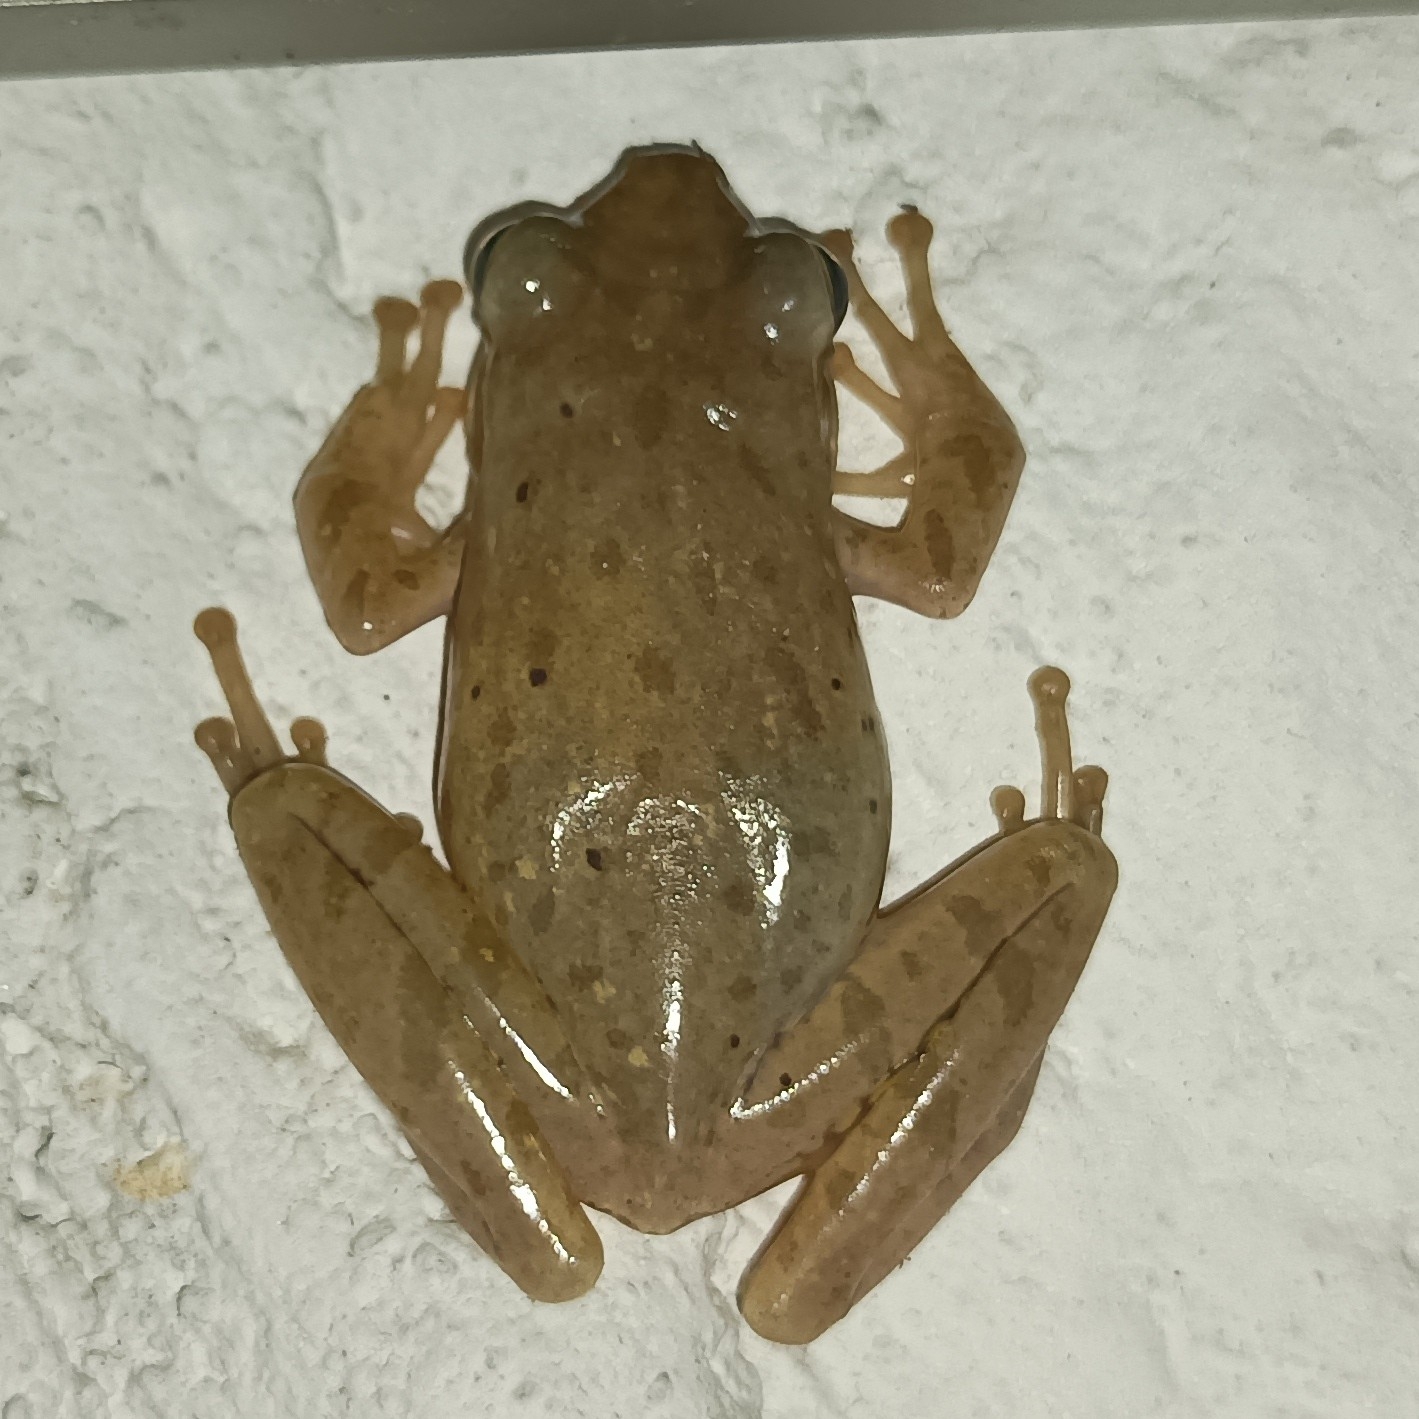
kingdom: Animalia
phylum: Chordata
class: Amphibia
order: Anura
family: Rhacophoridae
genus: Polypedates
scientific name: Polypedates maculatus
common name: Himalayan tree frog
